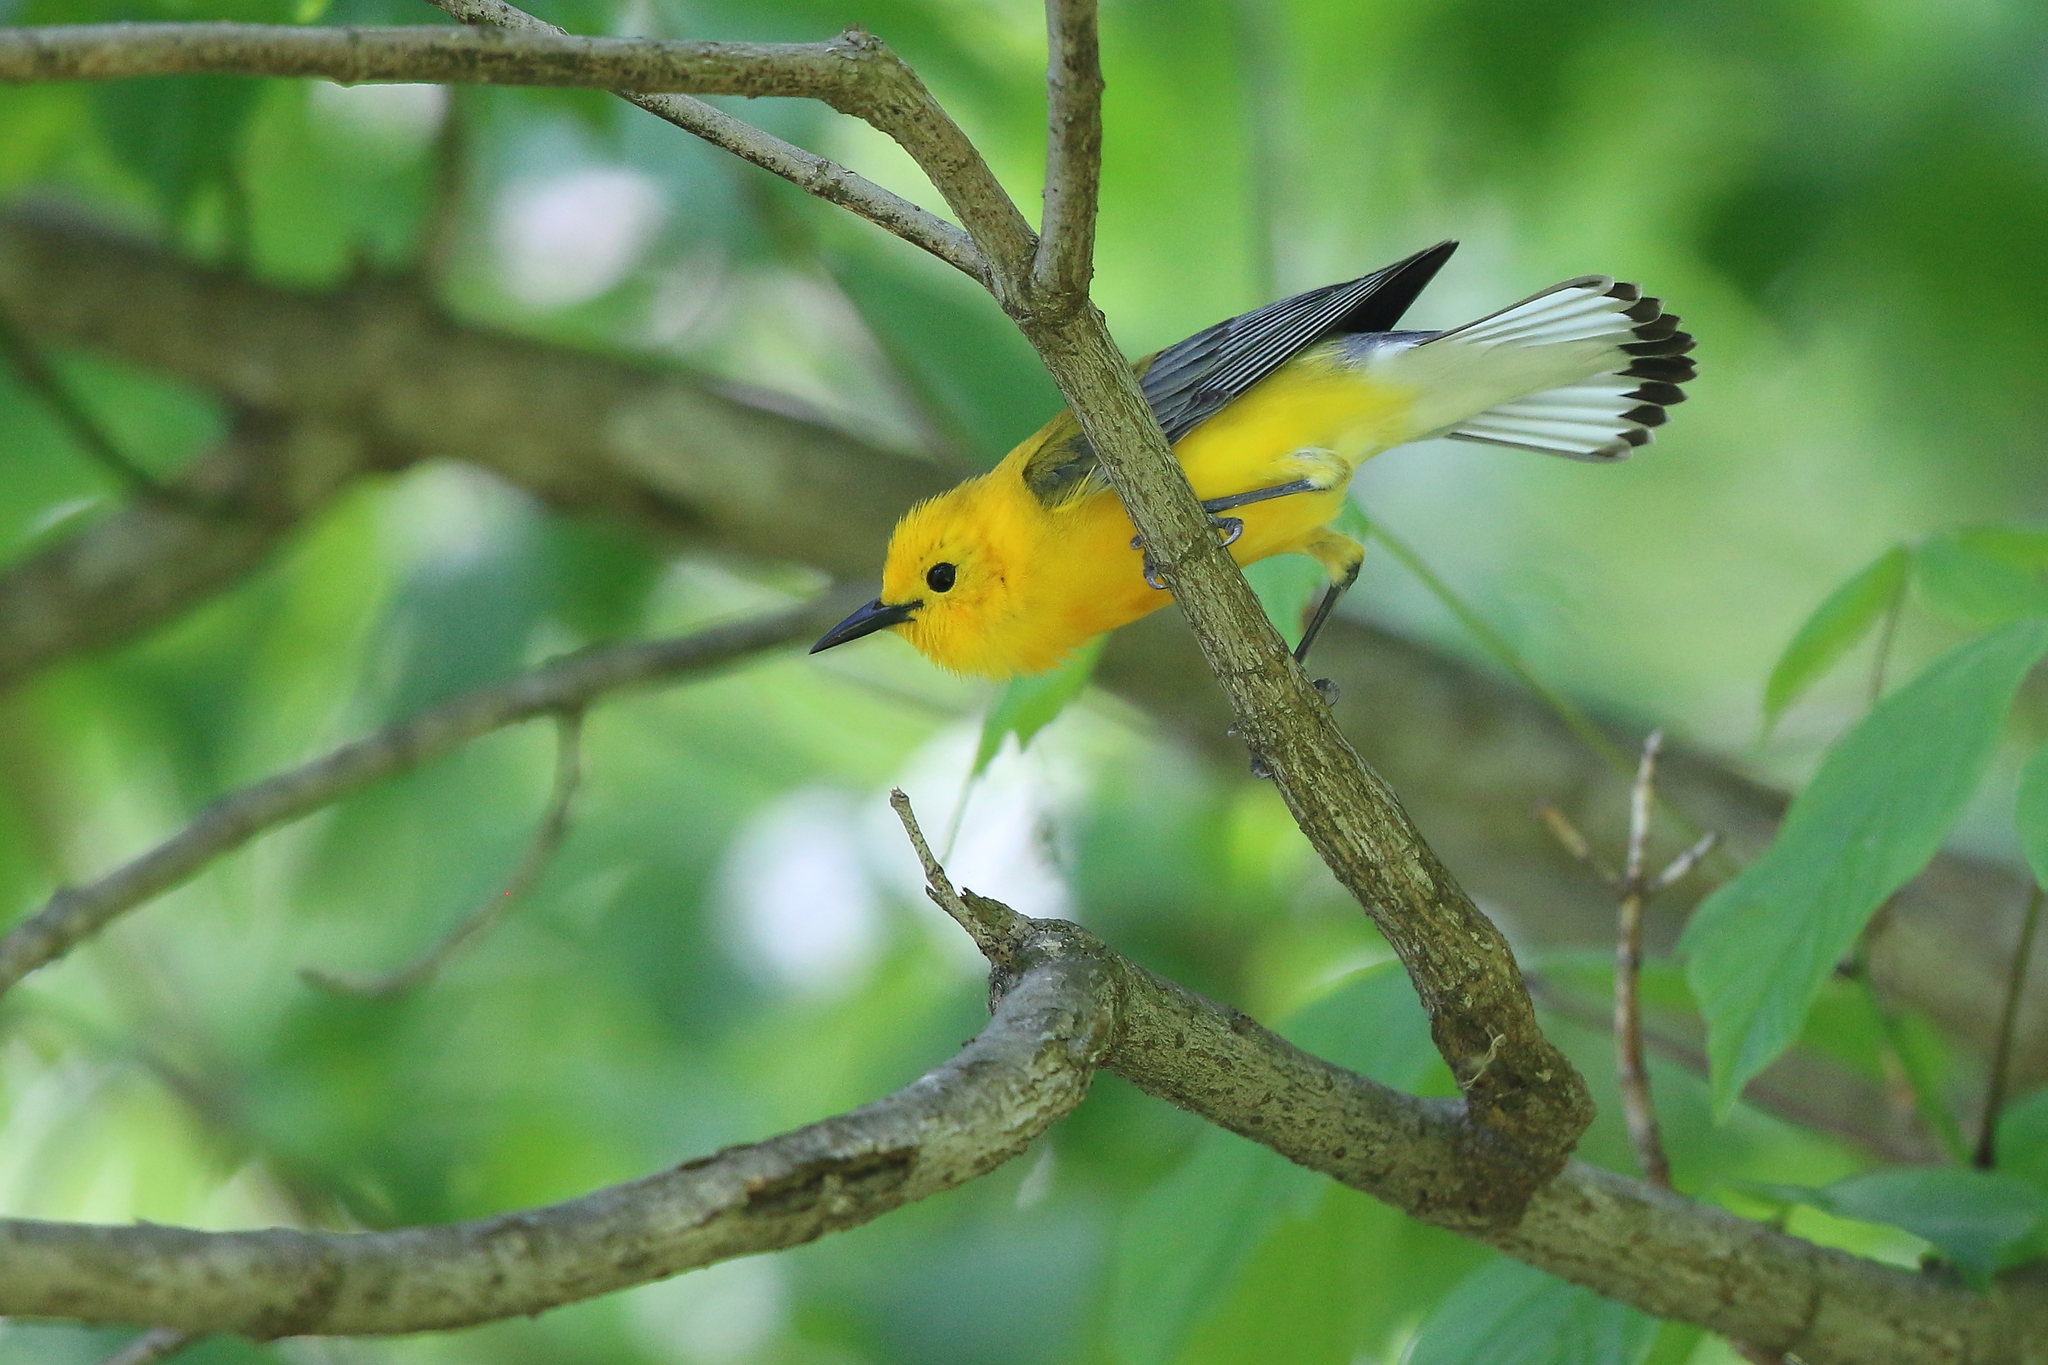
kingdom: Animalia
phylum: Chordata
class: Aves
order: Passeriformes
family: Parulidae
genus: Protonotaria
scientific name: Protonotaria citrea
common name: Prothonotary warbler
